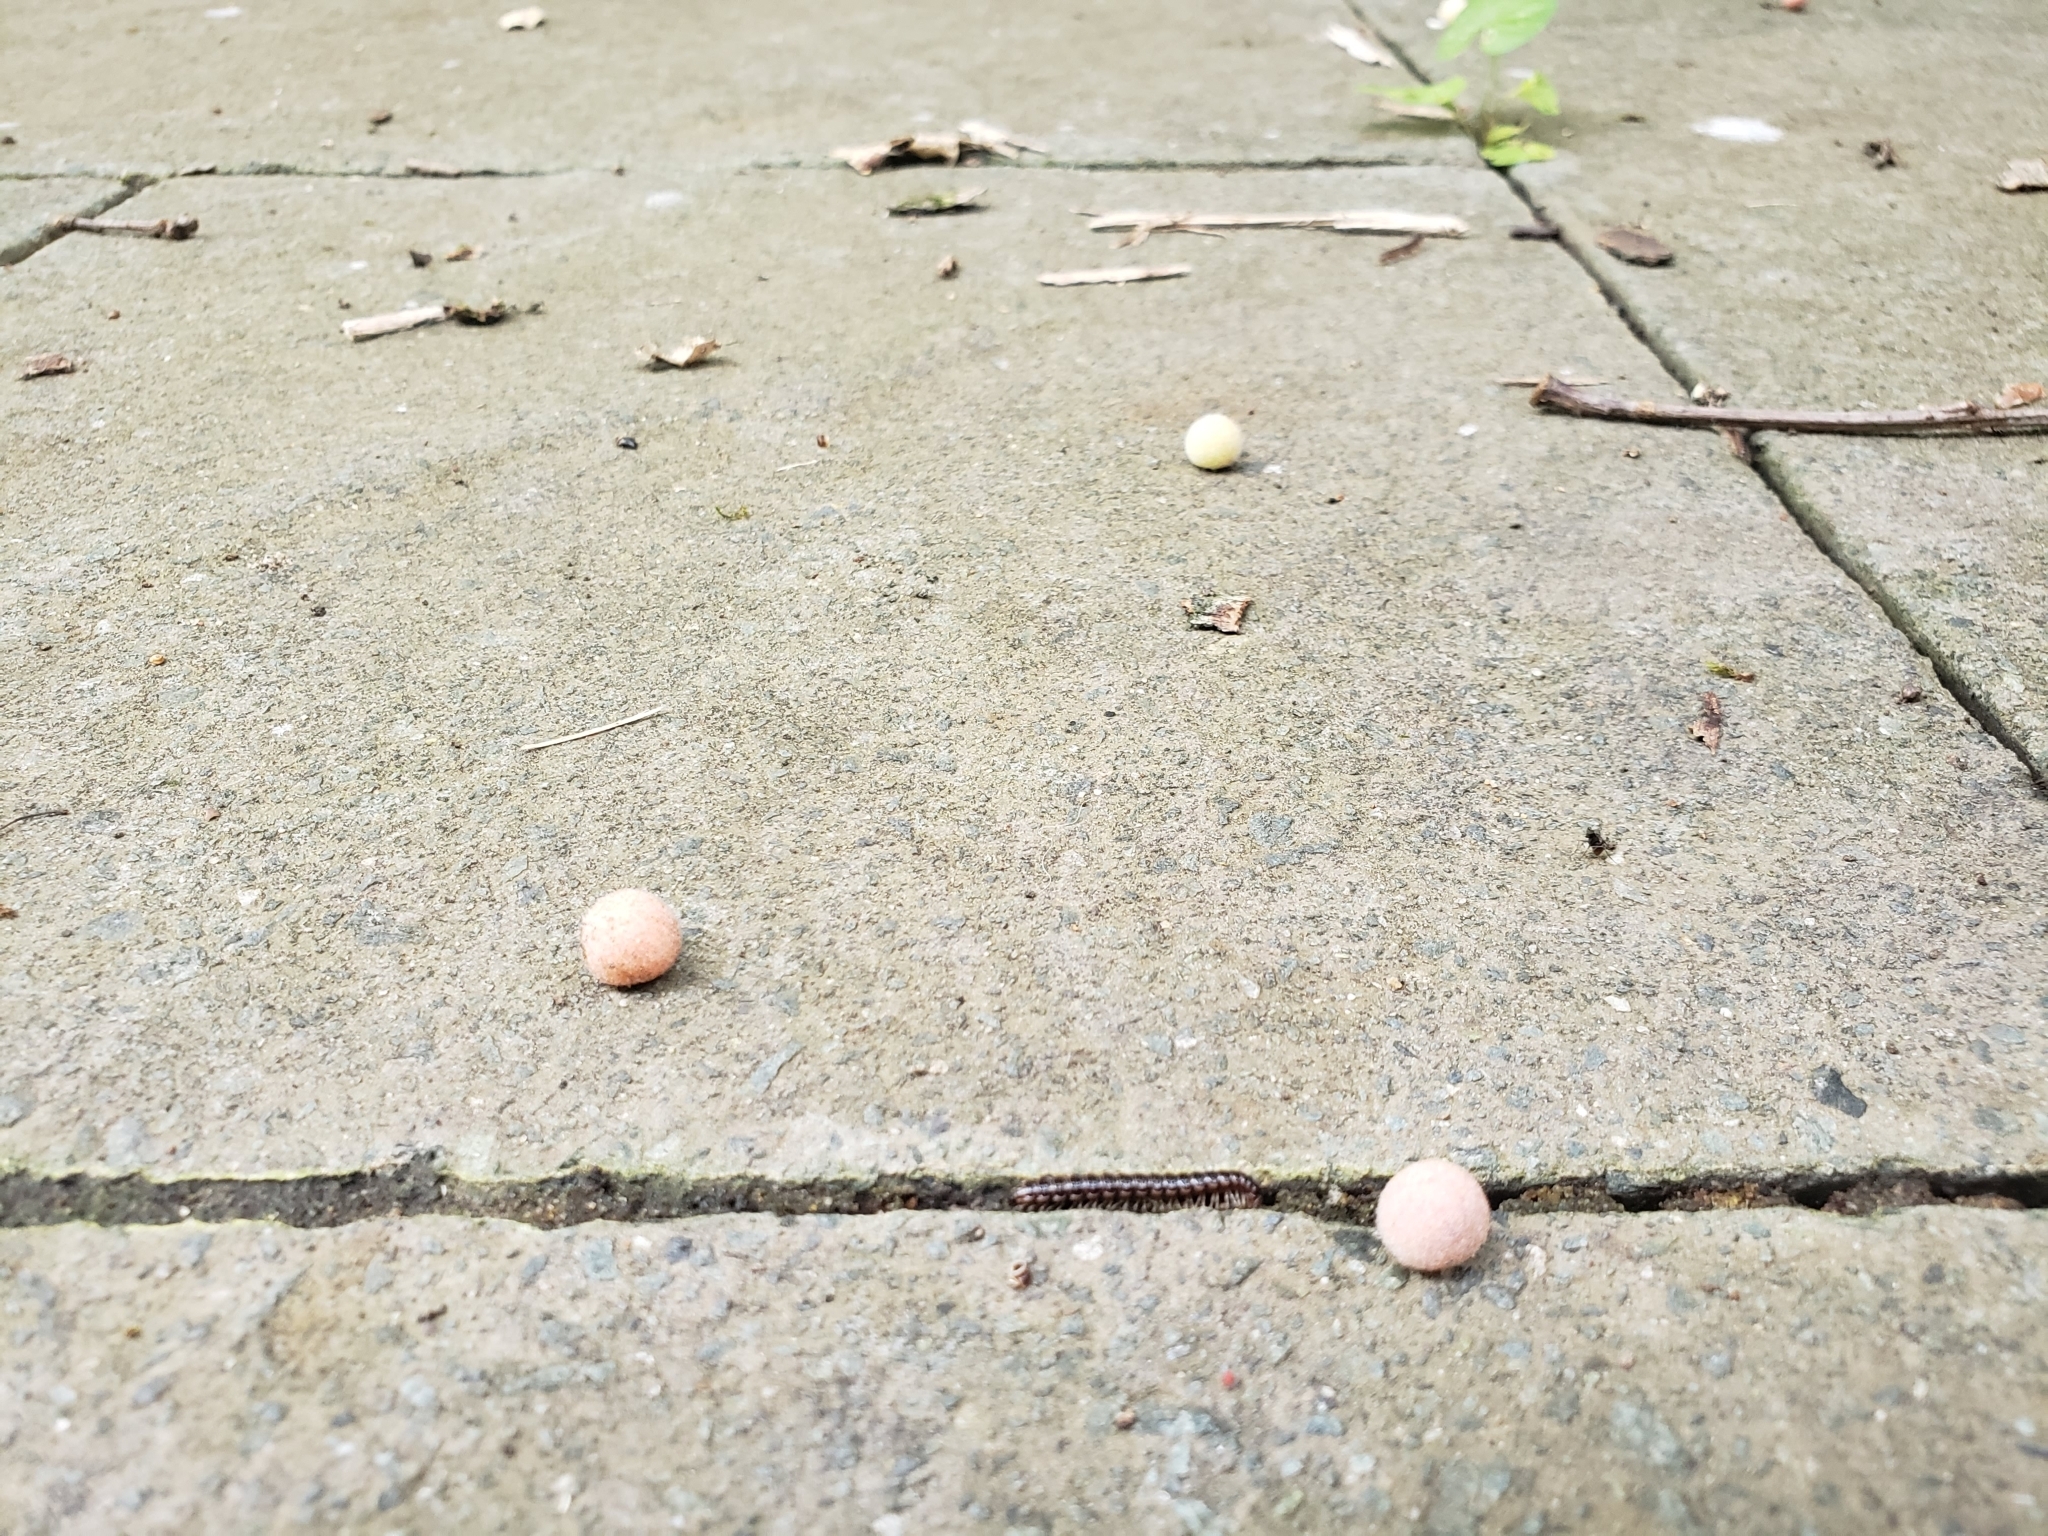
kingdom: Animalia
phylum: Arthropoda
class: Insecta
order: Hymenoptera
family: Cynipidae
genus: Philonix
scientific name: Philonix fulvicollis
